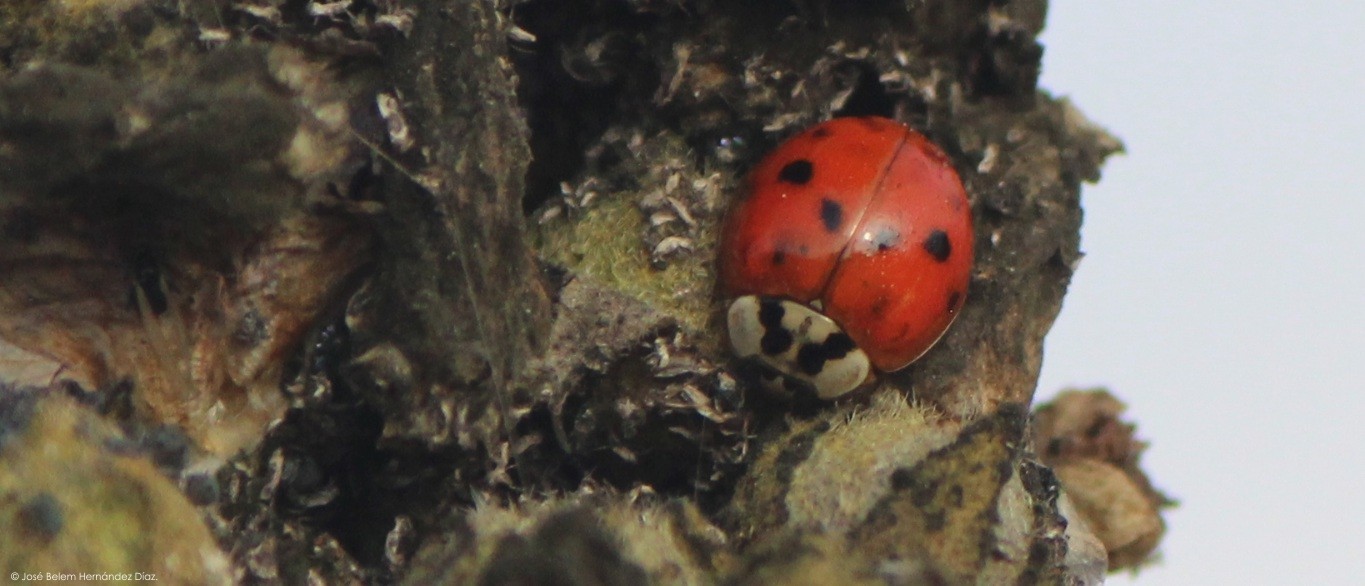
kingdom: Animalia
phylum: Arthropoda
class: Insecta
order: Coleoptera
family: Coccinellidae
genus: Harmonia
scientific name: Harmonia axyridis
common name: Harlequin ladybird
